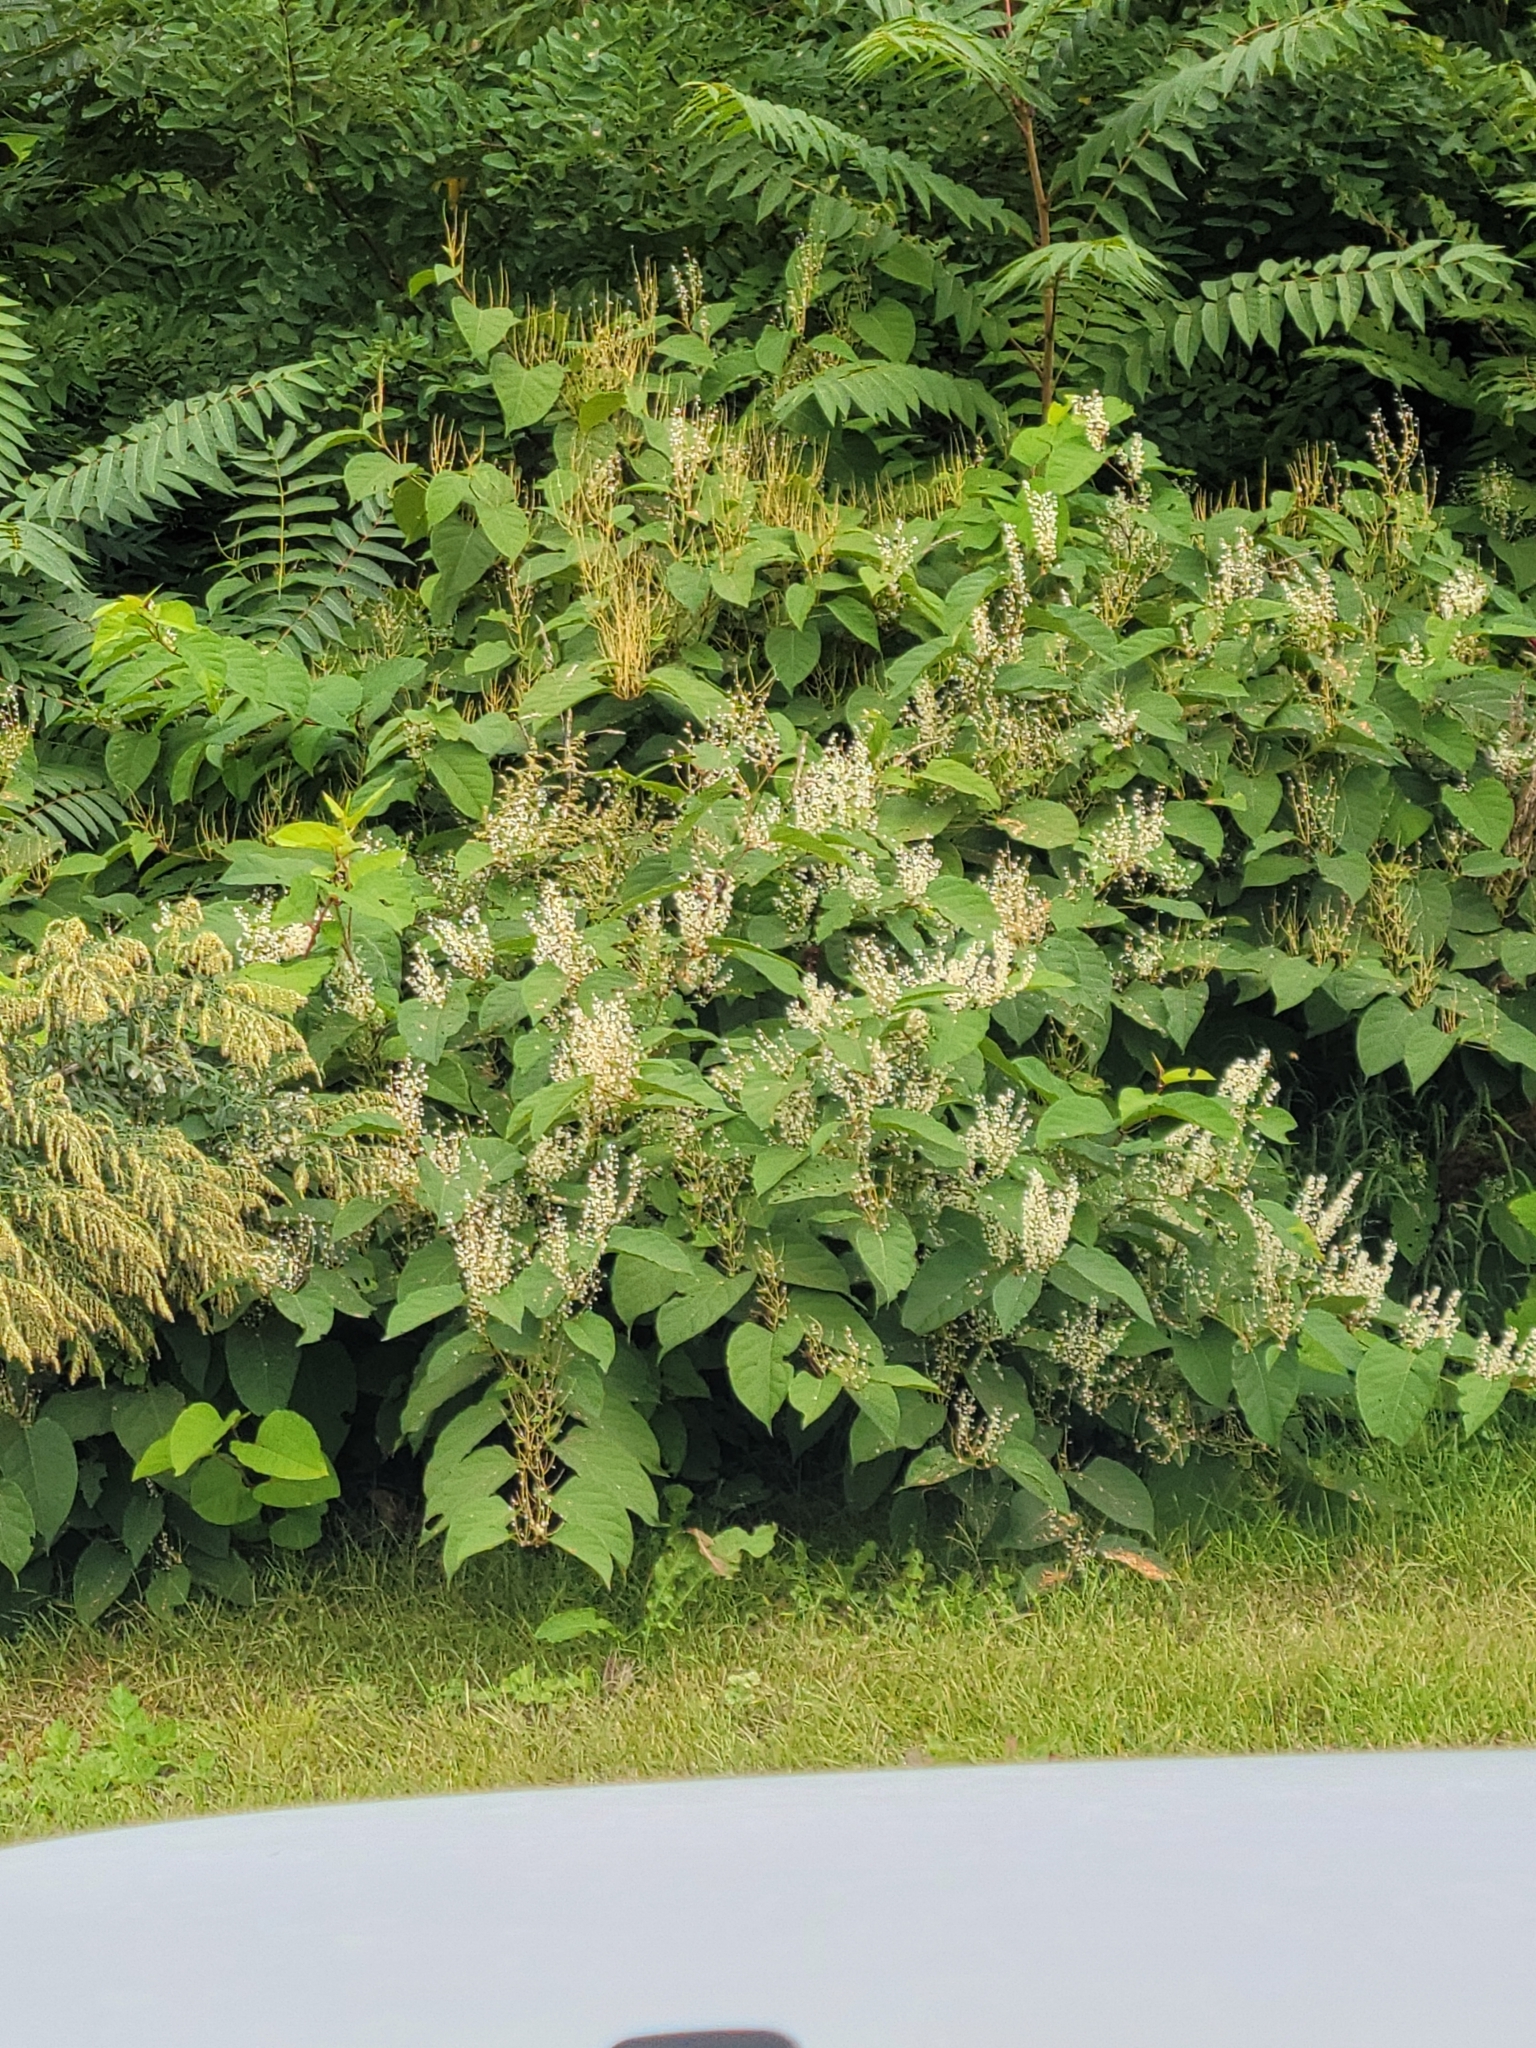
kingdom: Plantae
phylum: Tracheophyta
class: Magnoliopsida
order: Caryophyllales
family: Polygonaceae
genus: Reynoutria
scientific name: Reynoutria japonica
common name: Japanese knotweed
